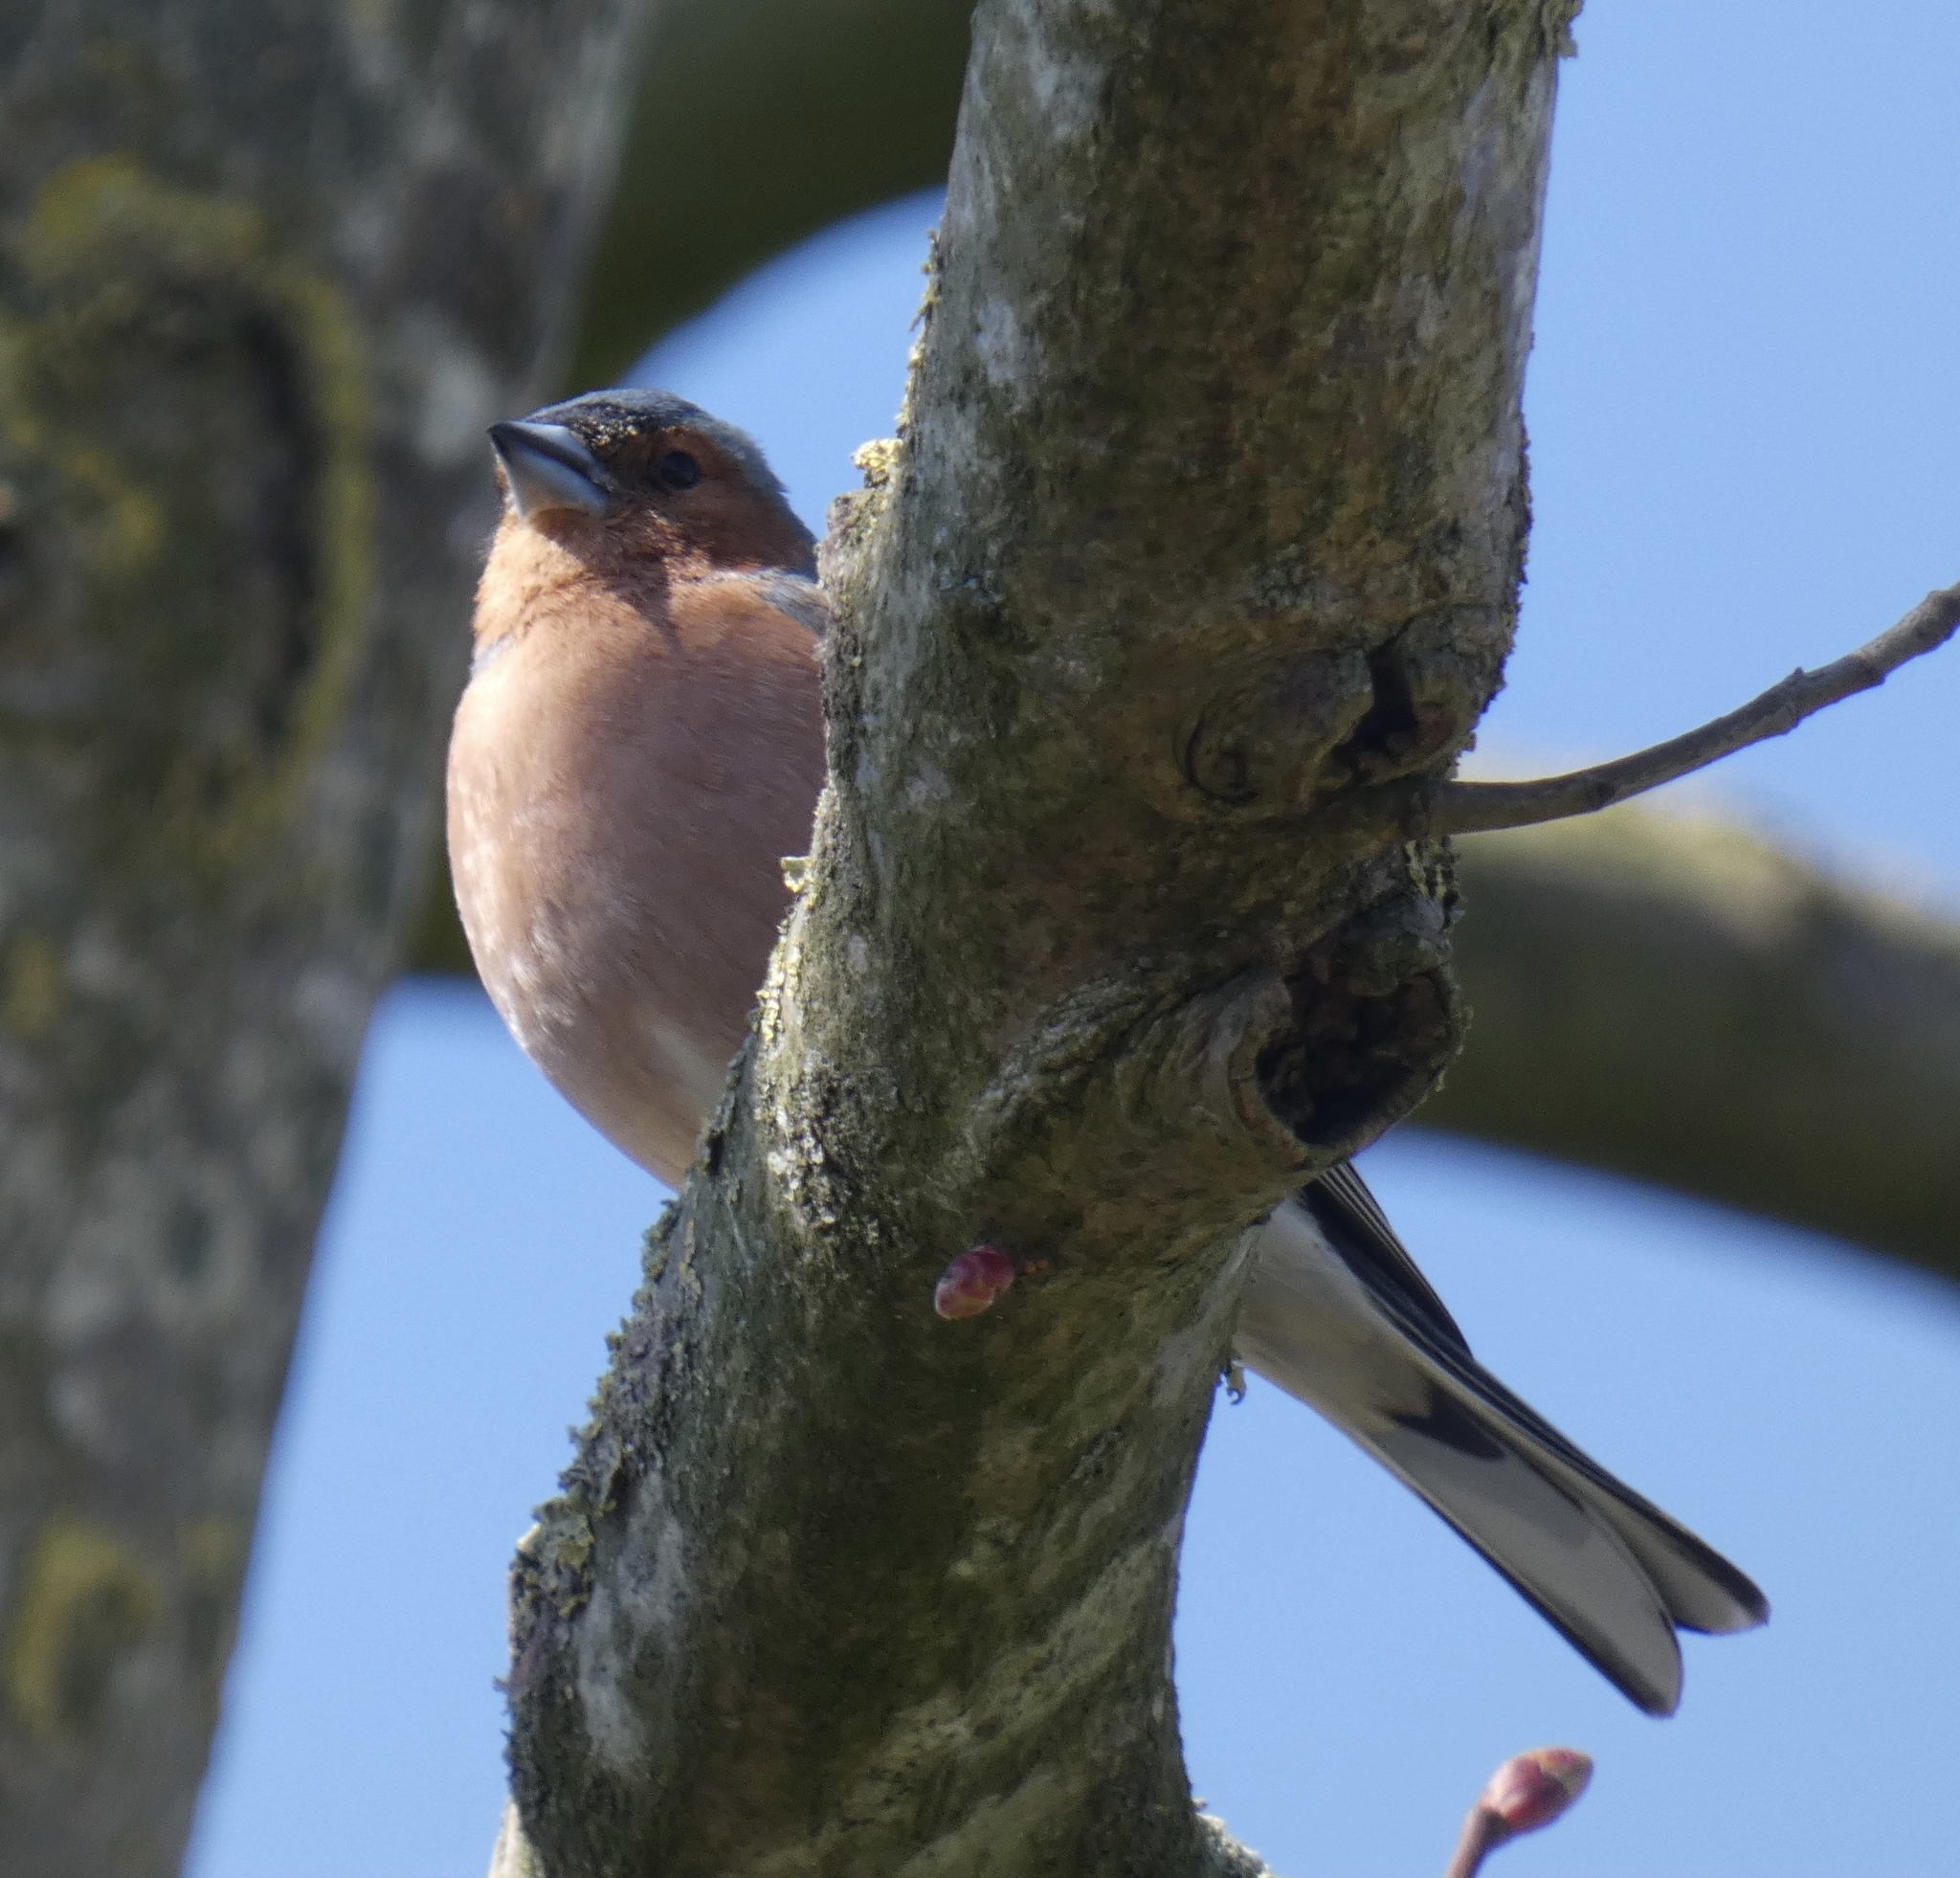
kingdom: Animalia
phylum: Chordata
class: Aves
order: Passeriformes
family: Fringillidae
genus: Fringilla
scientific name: Fringilla coelebs
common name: Common chaffinch
